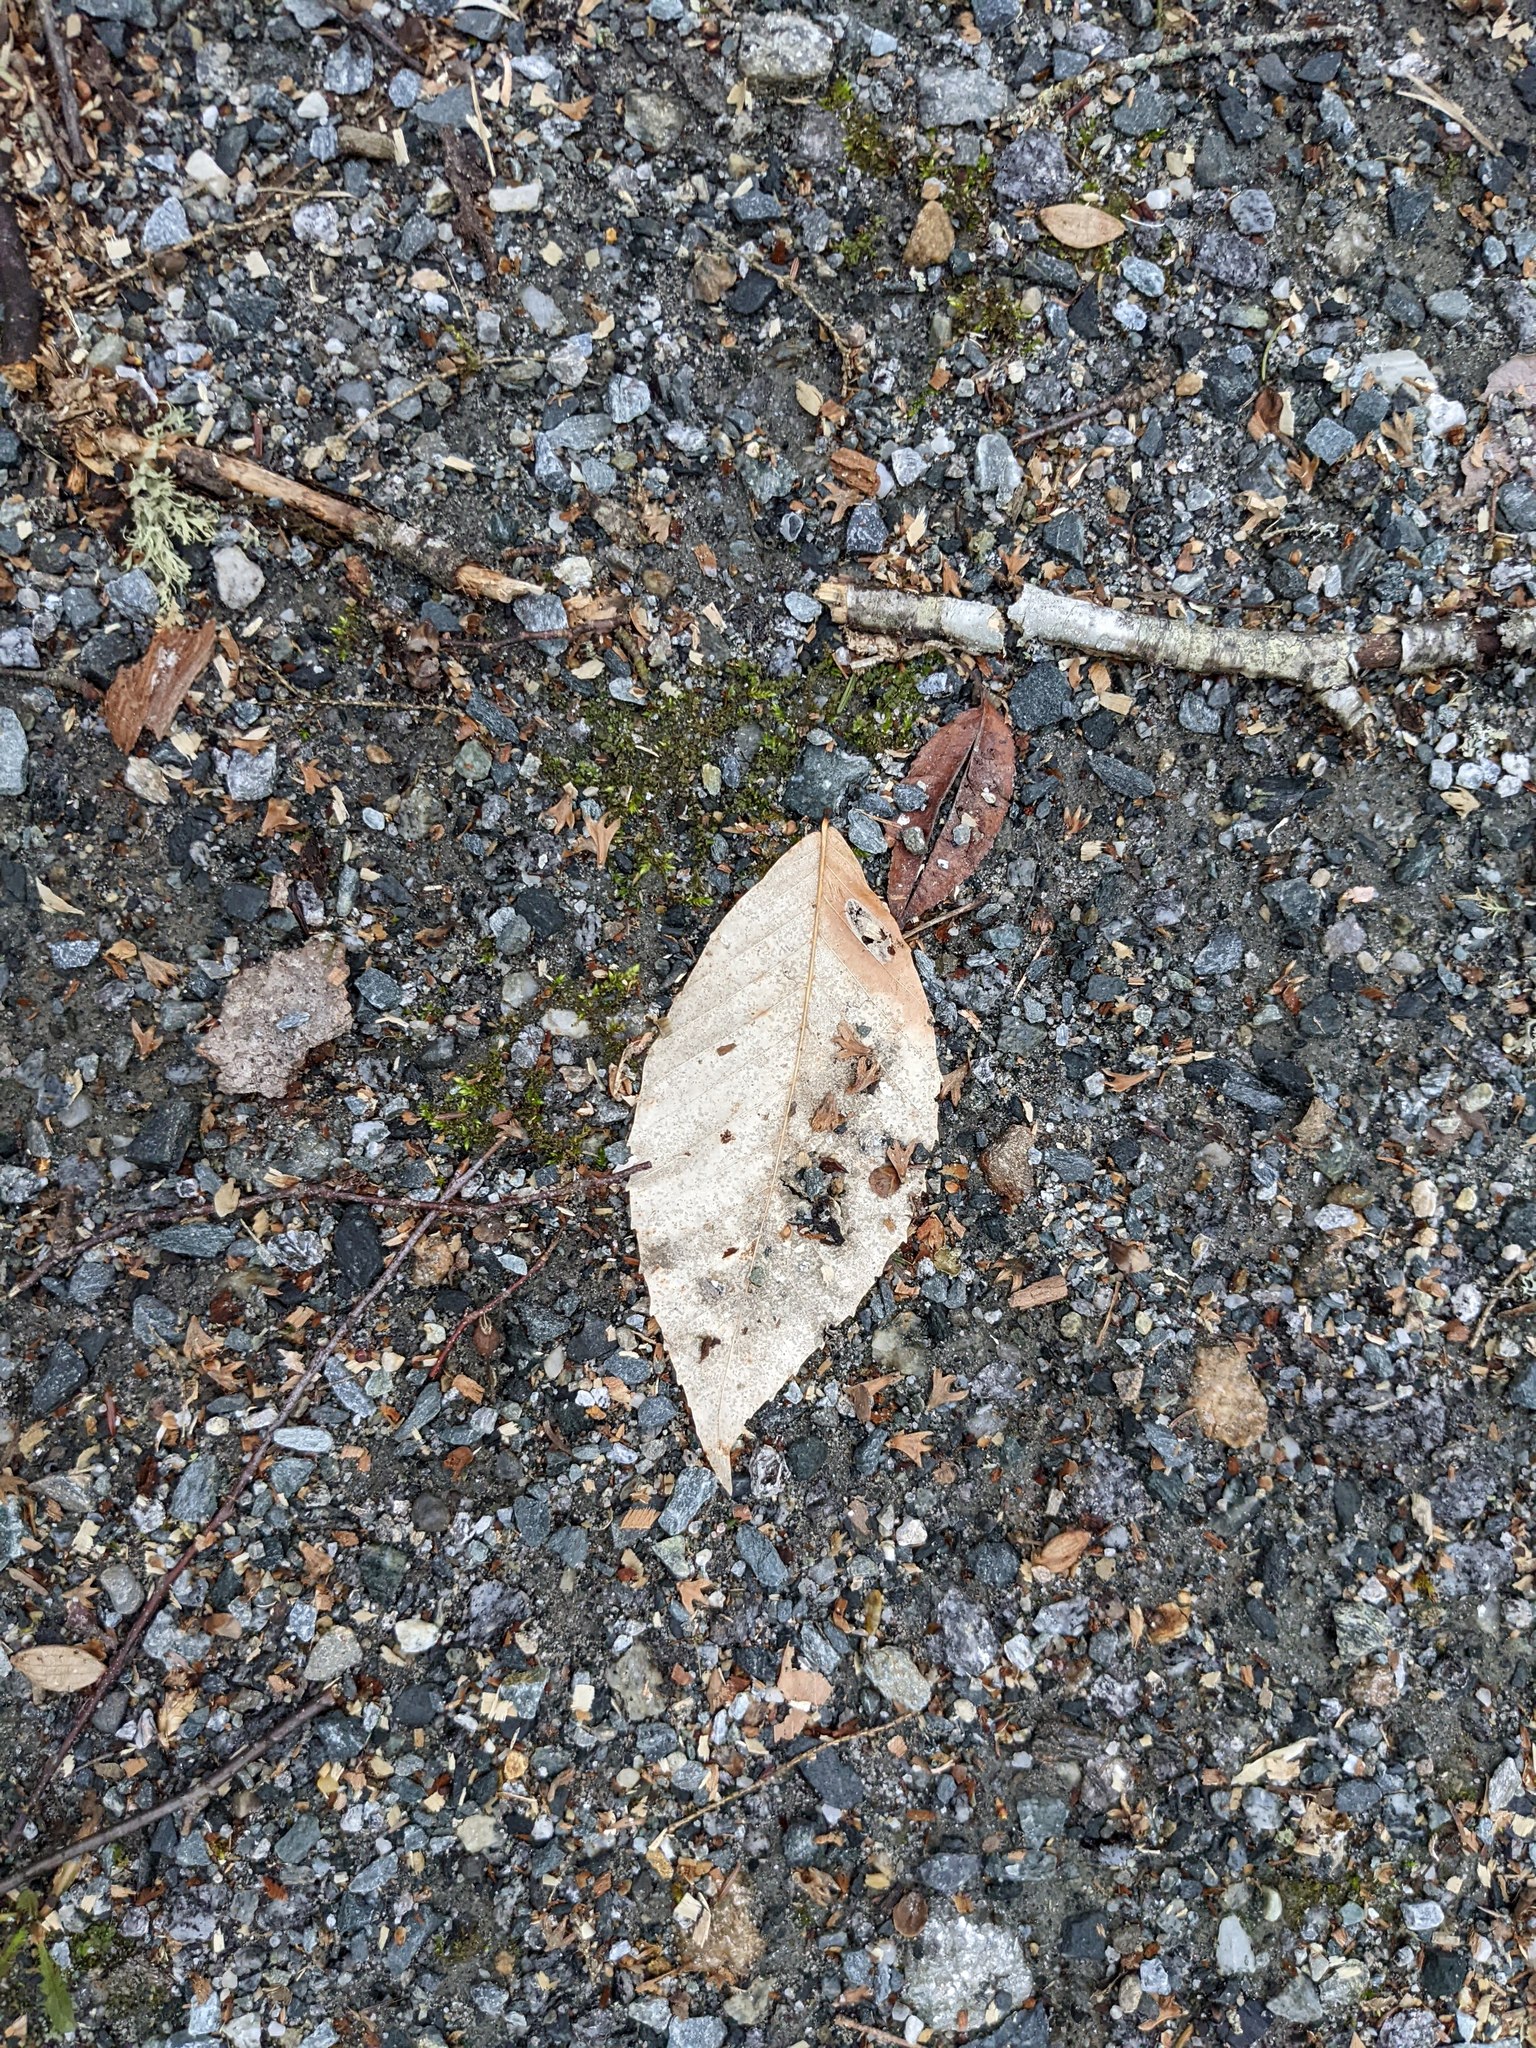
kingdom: Plantae
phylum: Tracheophyta
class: Magnoliopsida
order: Fagales
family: Fagaceae
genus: Fagus
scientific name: Fagus grandifolia
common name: American beech
